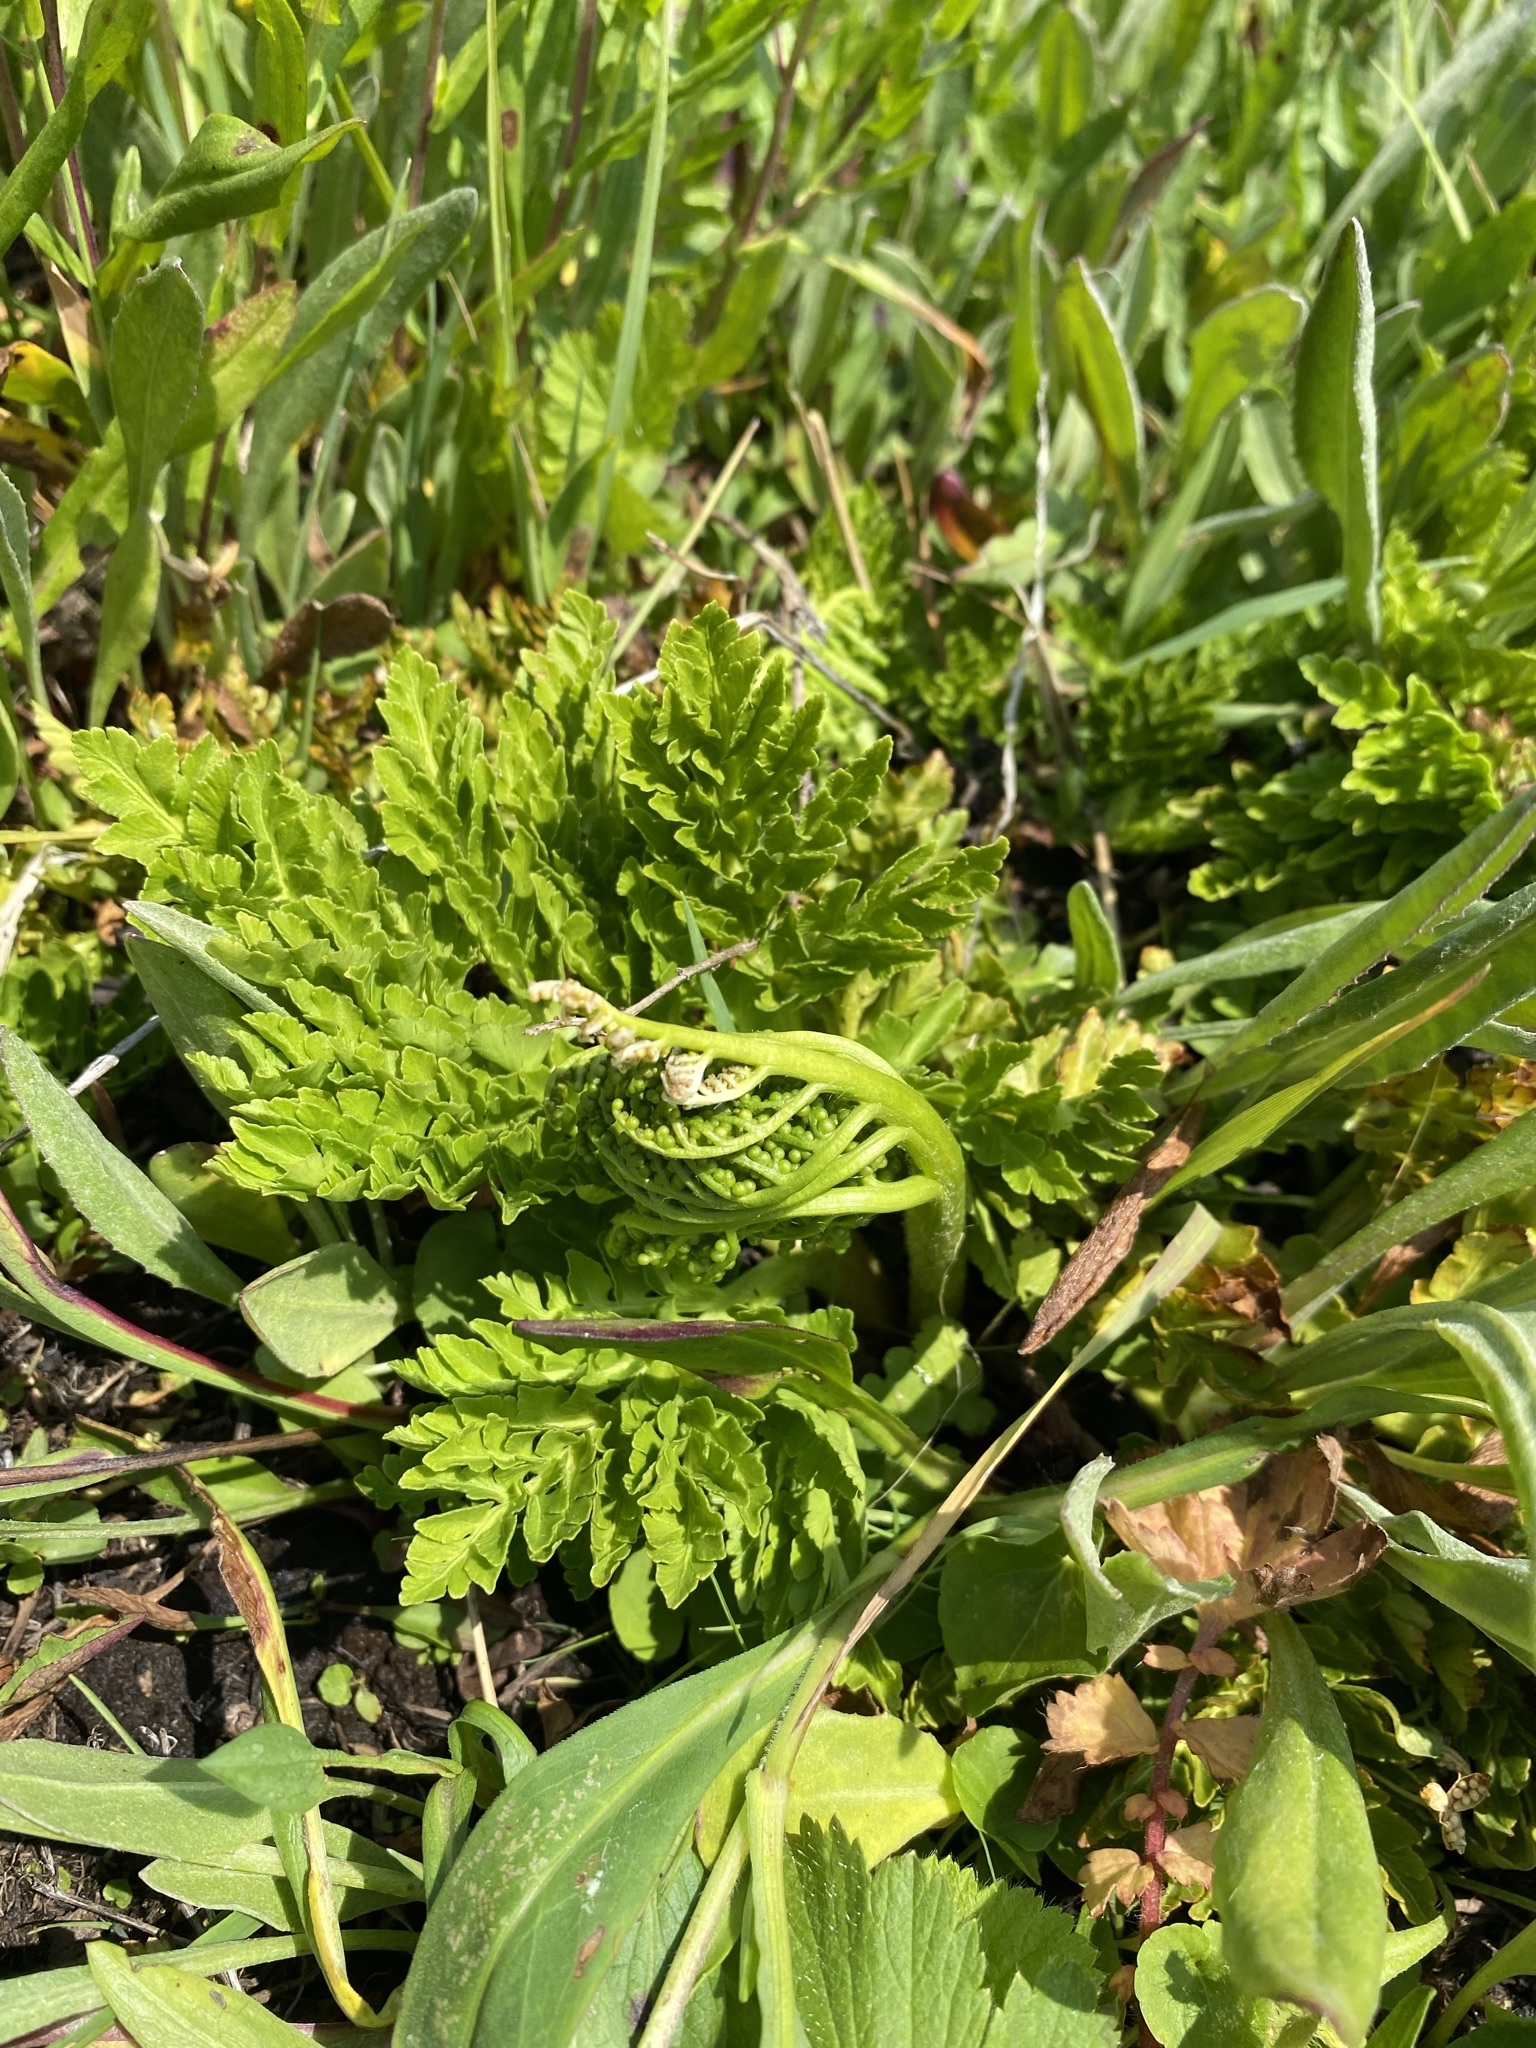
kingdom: Plantae
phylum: Tracheophyta
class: Polypodiopsida
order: Ophioglossales
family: Ophioglossaceae
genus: Sceptridium
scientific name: Sceptridium multifidum
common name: Leathery grape fern
